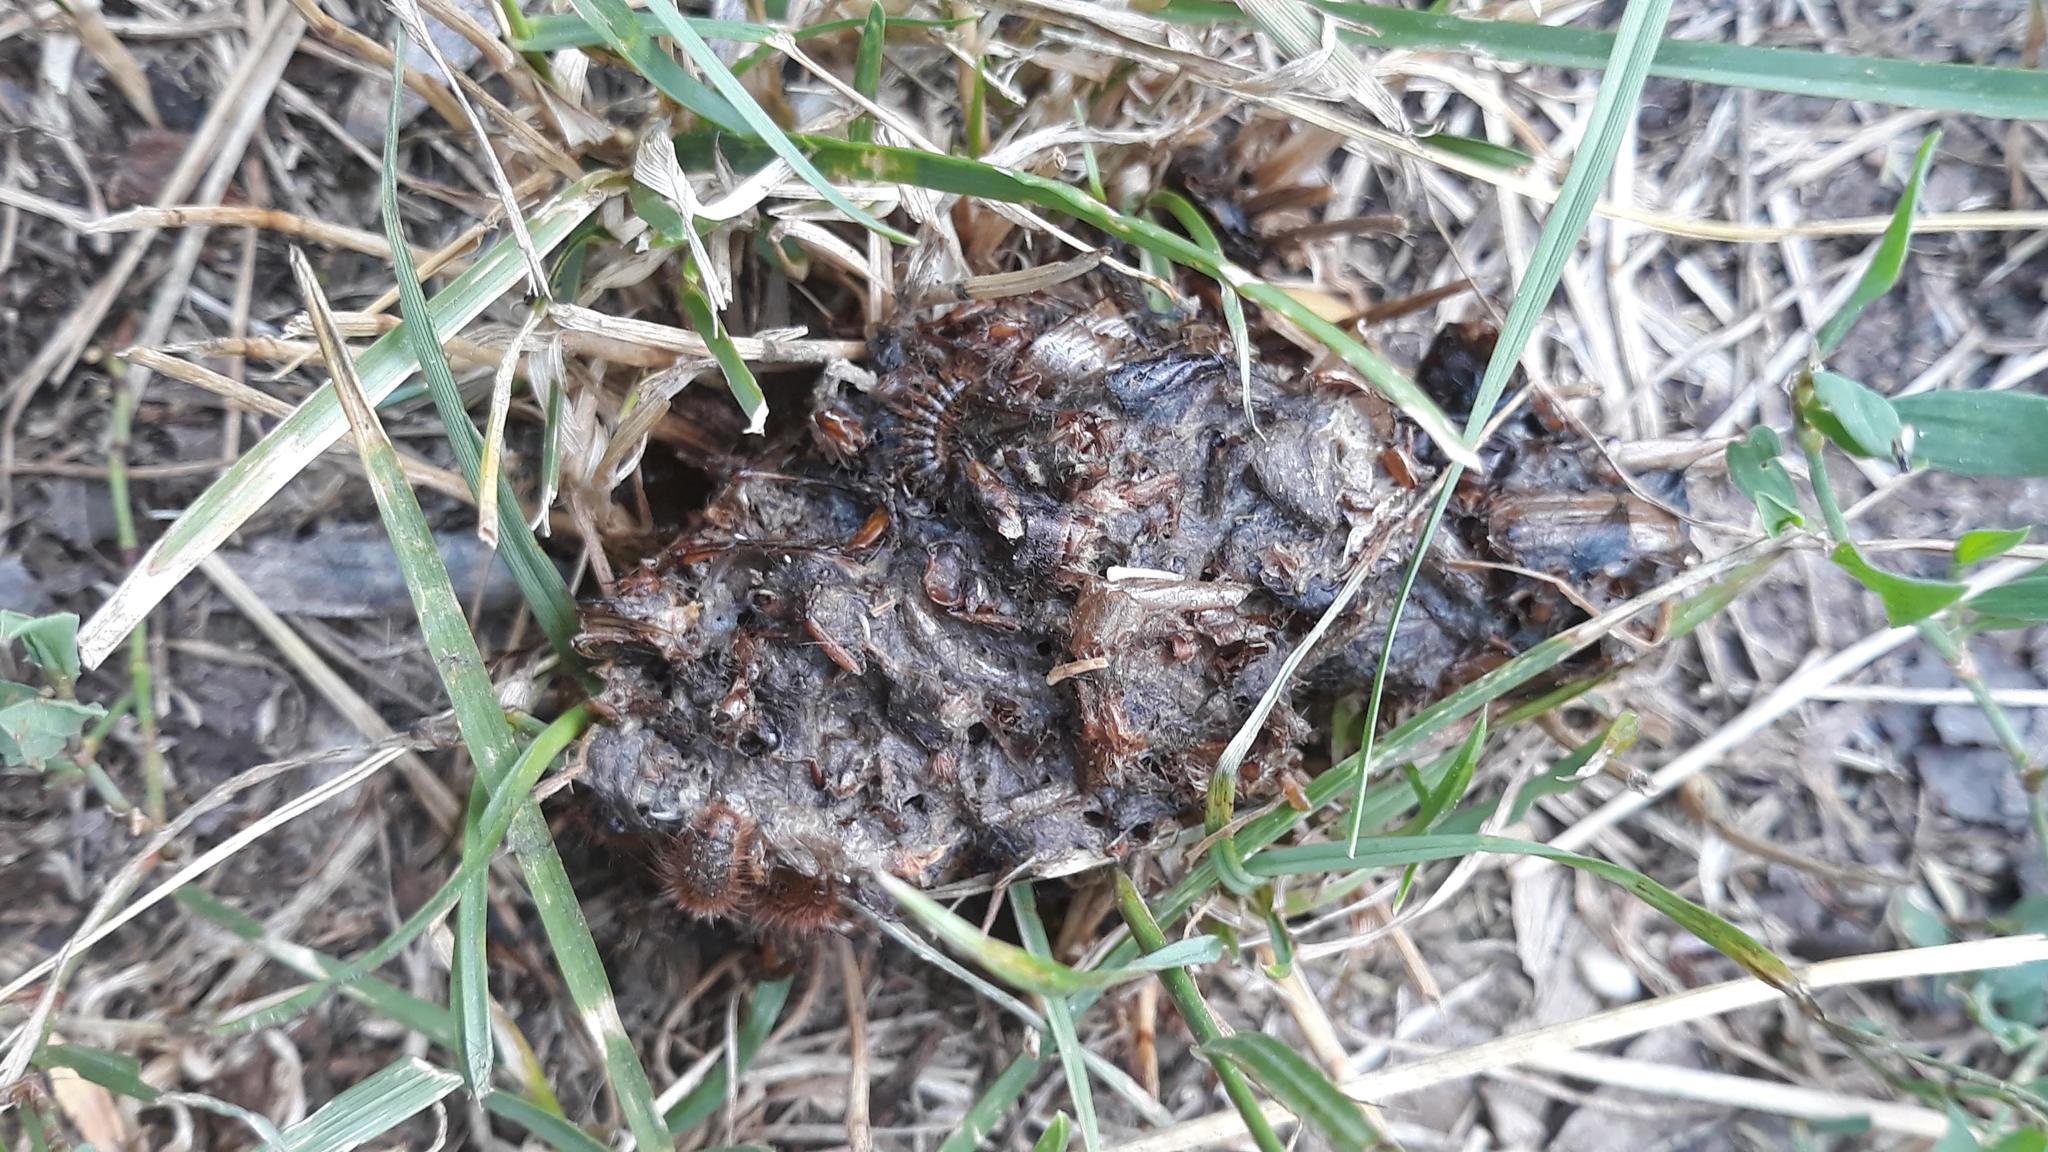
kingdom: Animalia
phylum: Chordata
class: Mammalia
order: Carnivora
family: Canidae
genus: Canis
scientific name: Canis lupus
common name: Gray wolf
